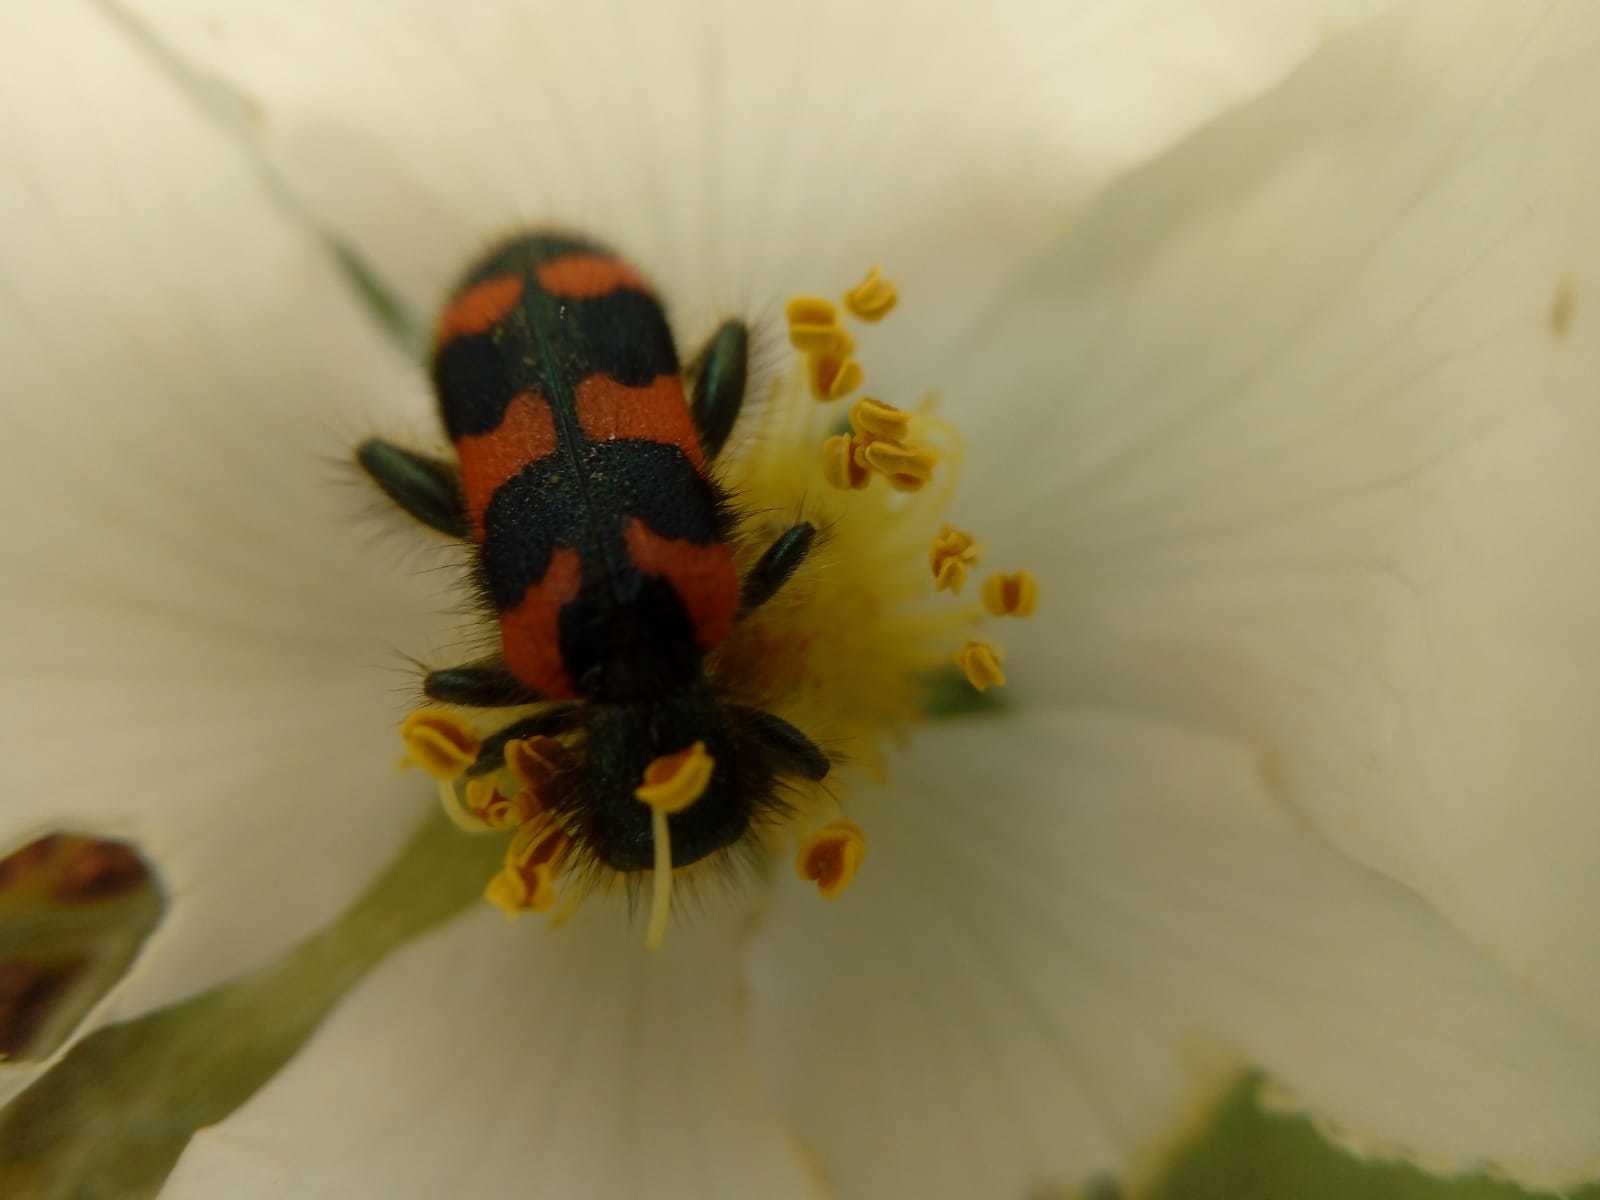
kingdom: Animalia
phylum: Arthropoda
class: Insecta
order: Coleoptera
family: Cleridae
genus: Trichodes
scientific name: Trichodes alvearius
